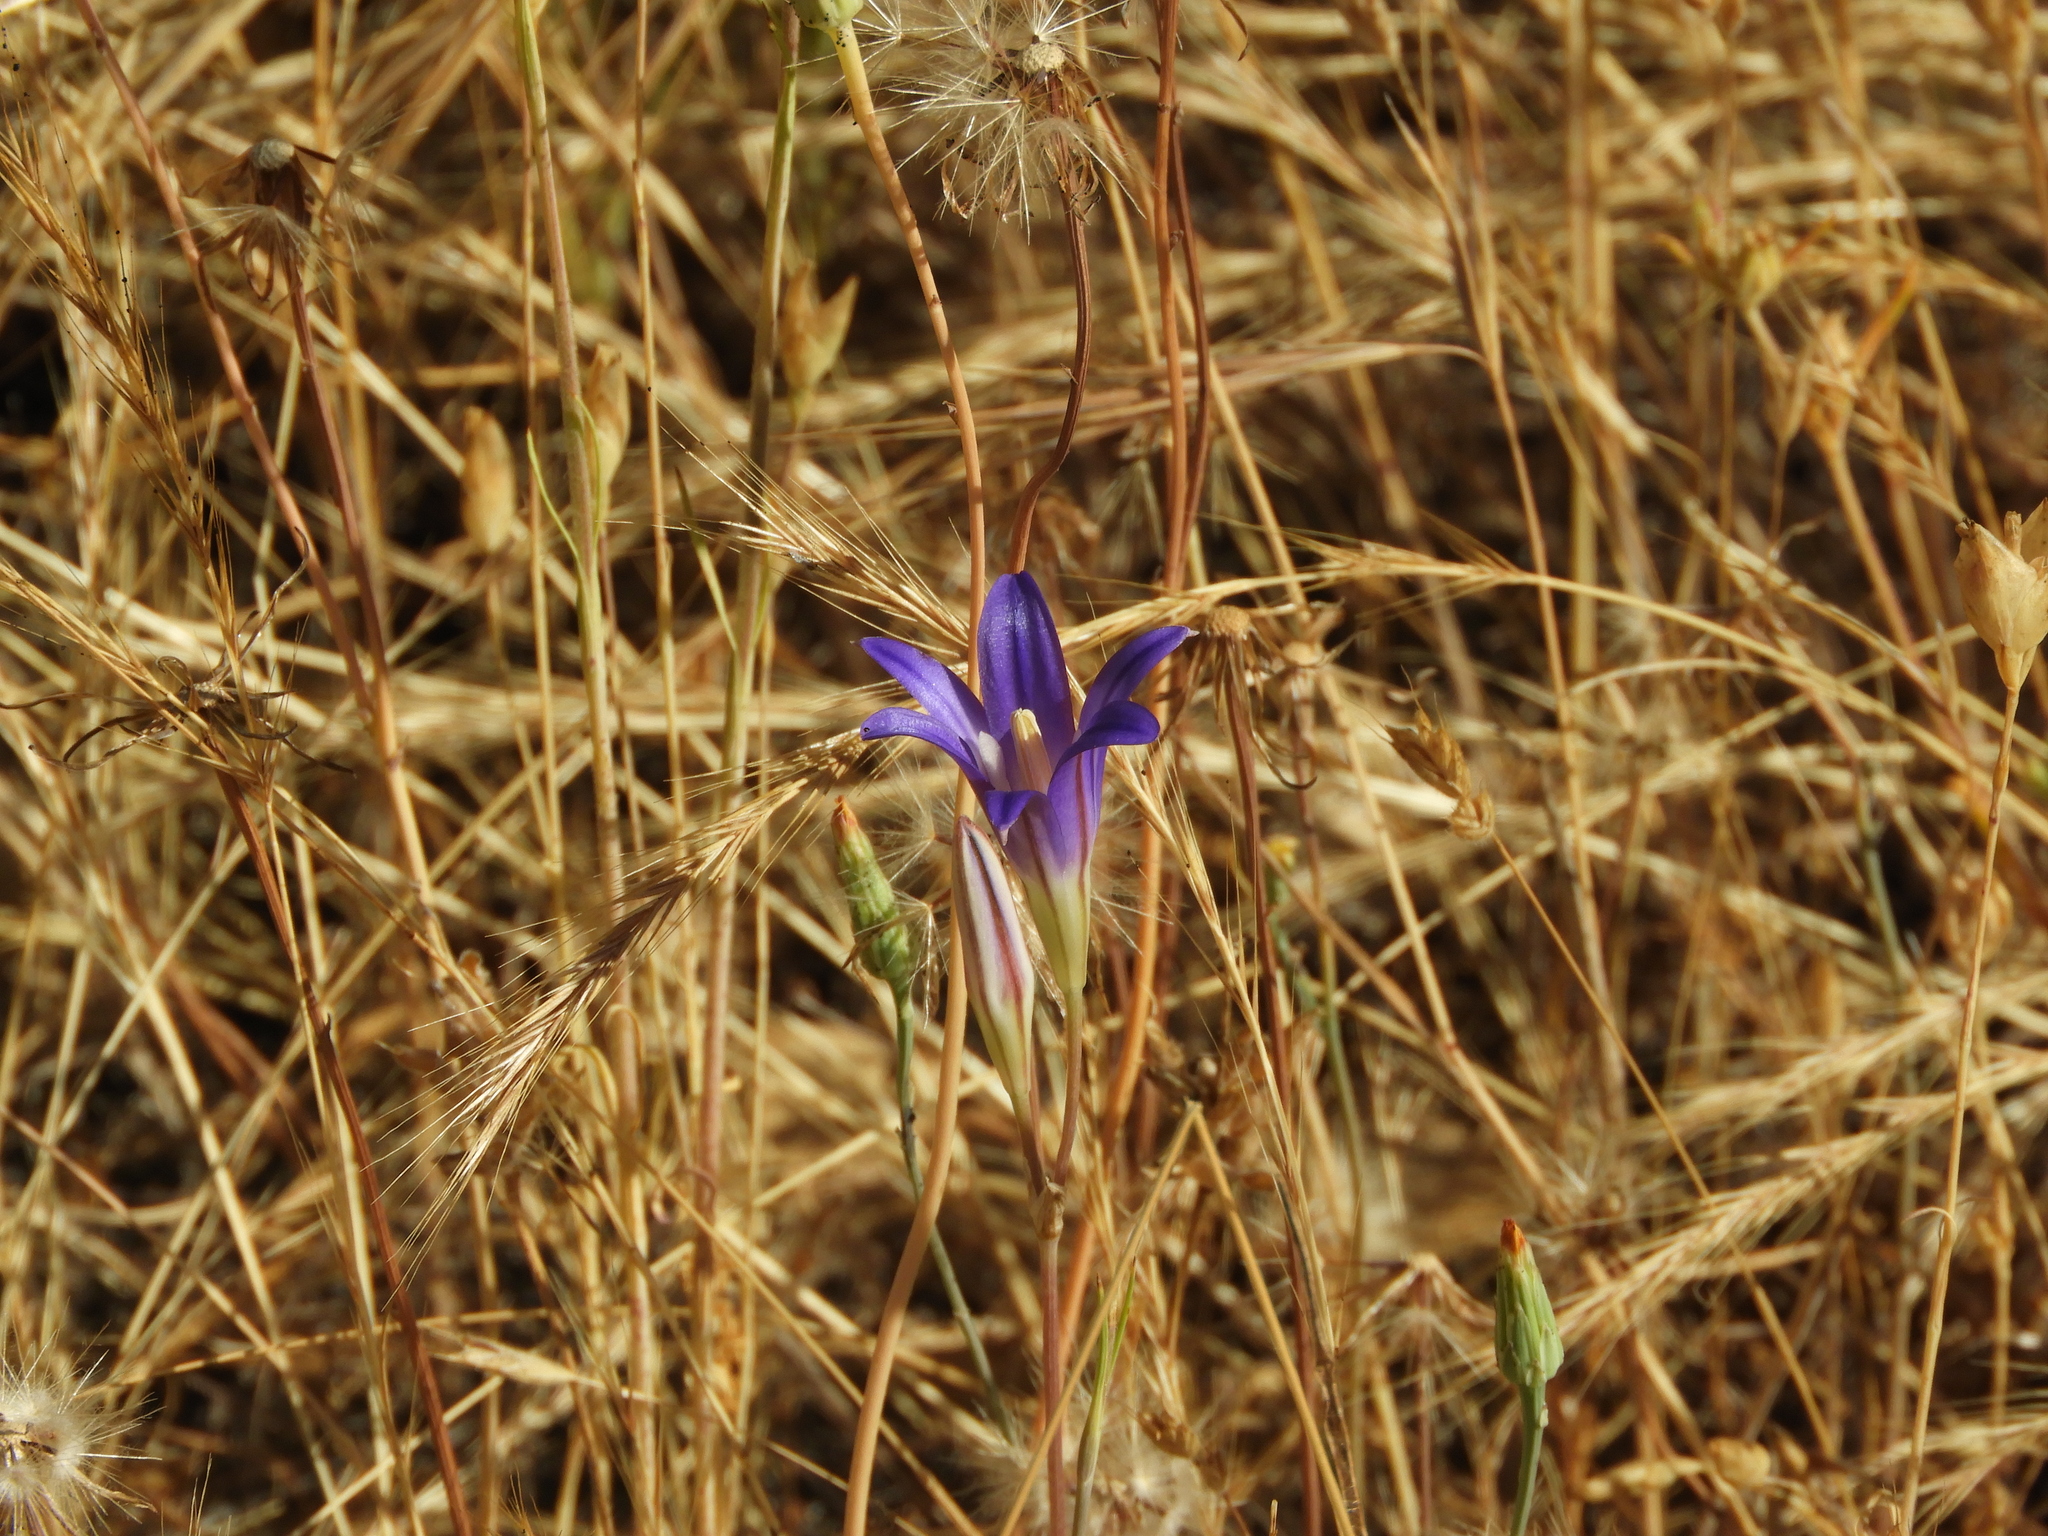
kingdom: Plantae
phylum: Tracheophyta
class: Liliopsida
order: Asparagales
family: Asparagaceae
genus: Brodiaea
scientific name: Brodiaea elegans
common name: Elegant cluster-lily
